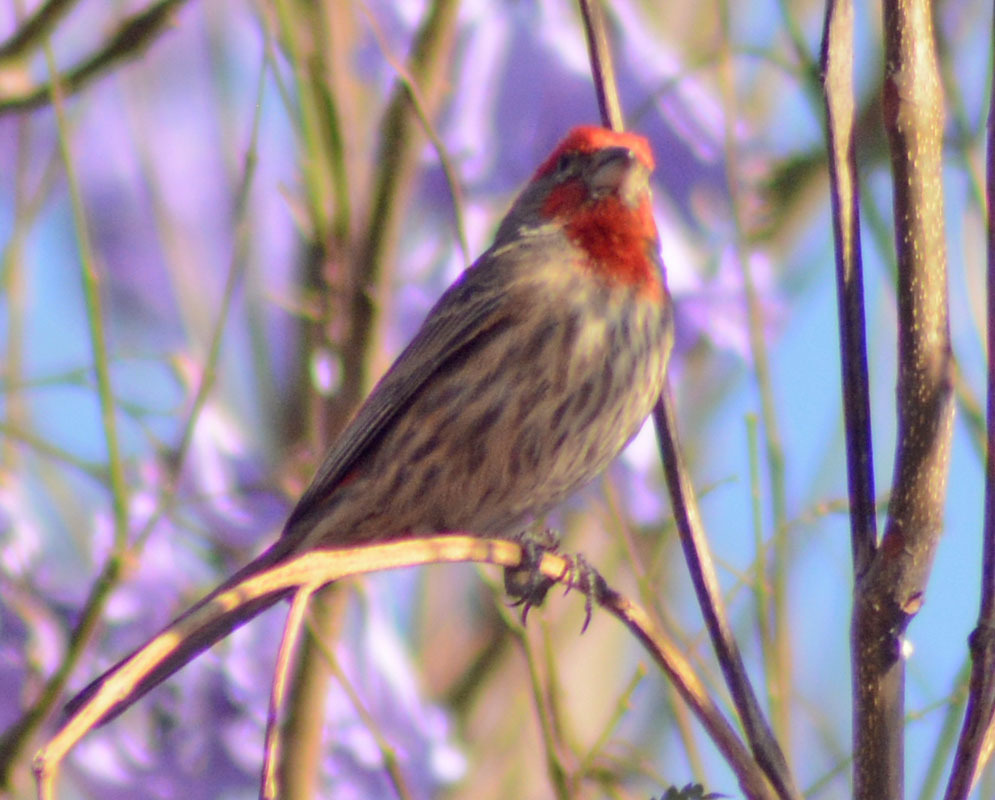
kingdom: Animalia
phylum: Chordata
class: Aves
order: Passeriformes
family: Fringillidae
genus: Haemorhous
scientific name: Haemorhous mexicanus
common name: House finch
